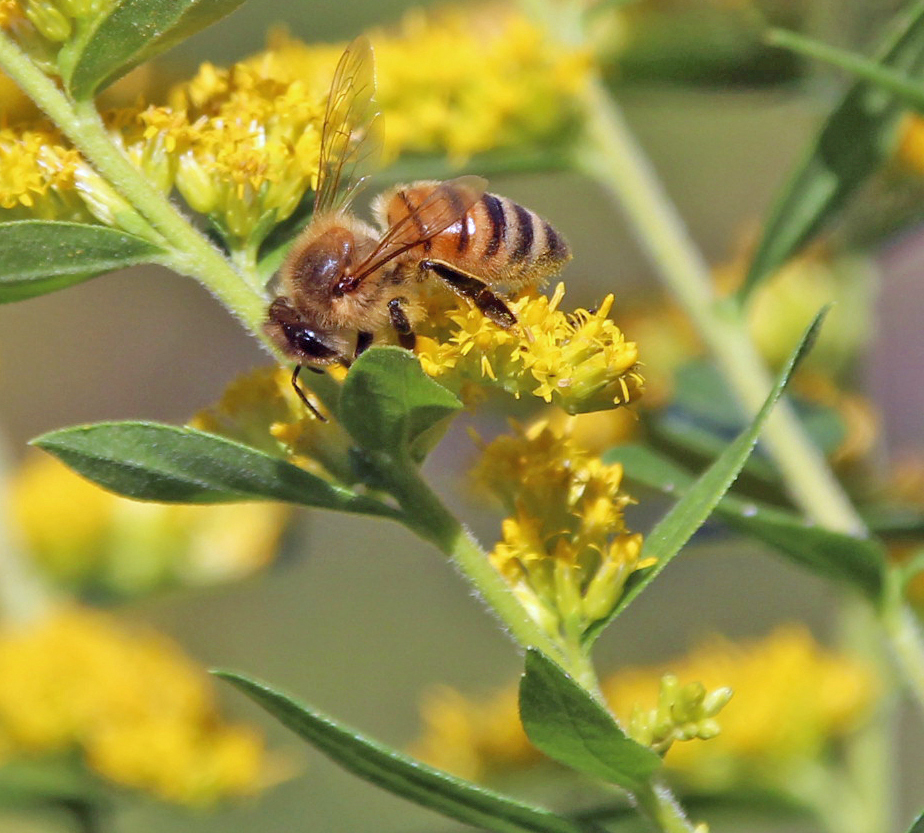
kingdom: Animalia
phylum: Arthropoda
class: Insecta
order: Hymenoptera
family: Apidae
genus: Apis
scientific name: Apis mellifera
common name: Honey bee
